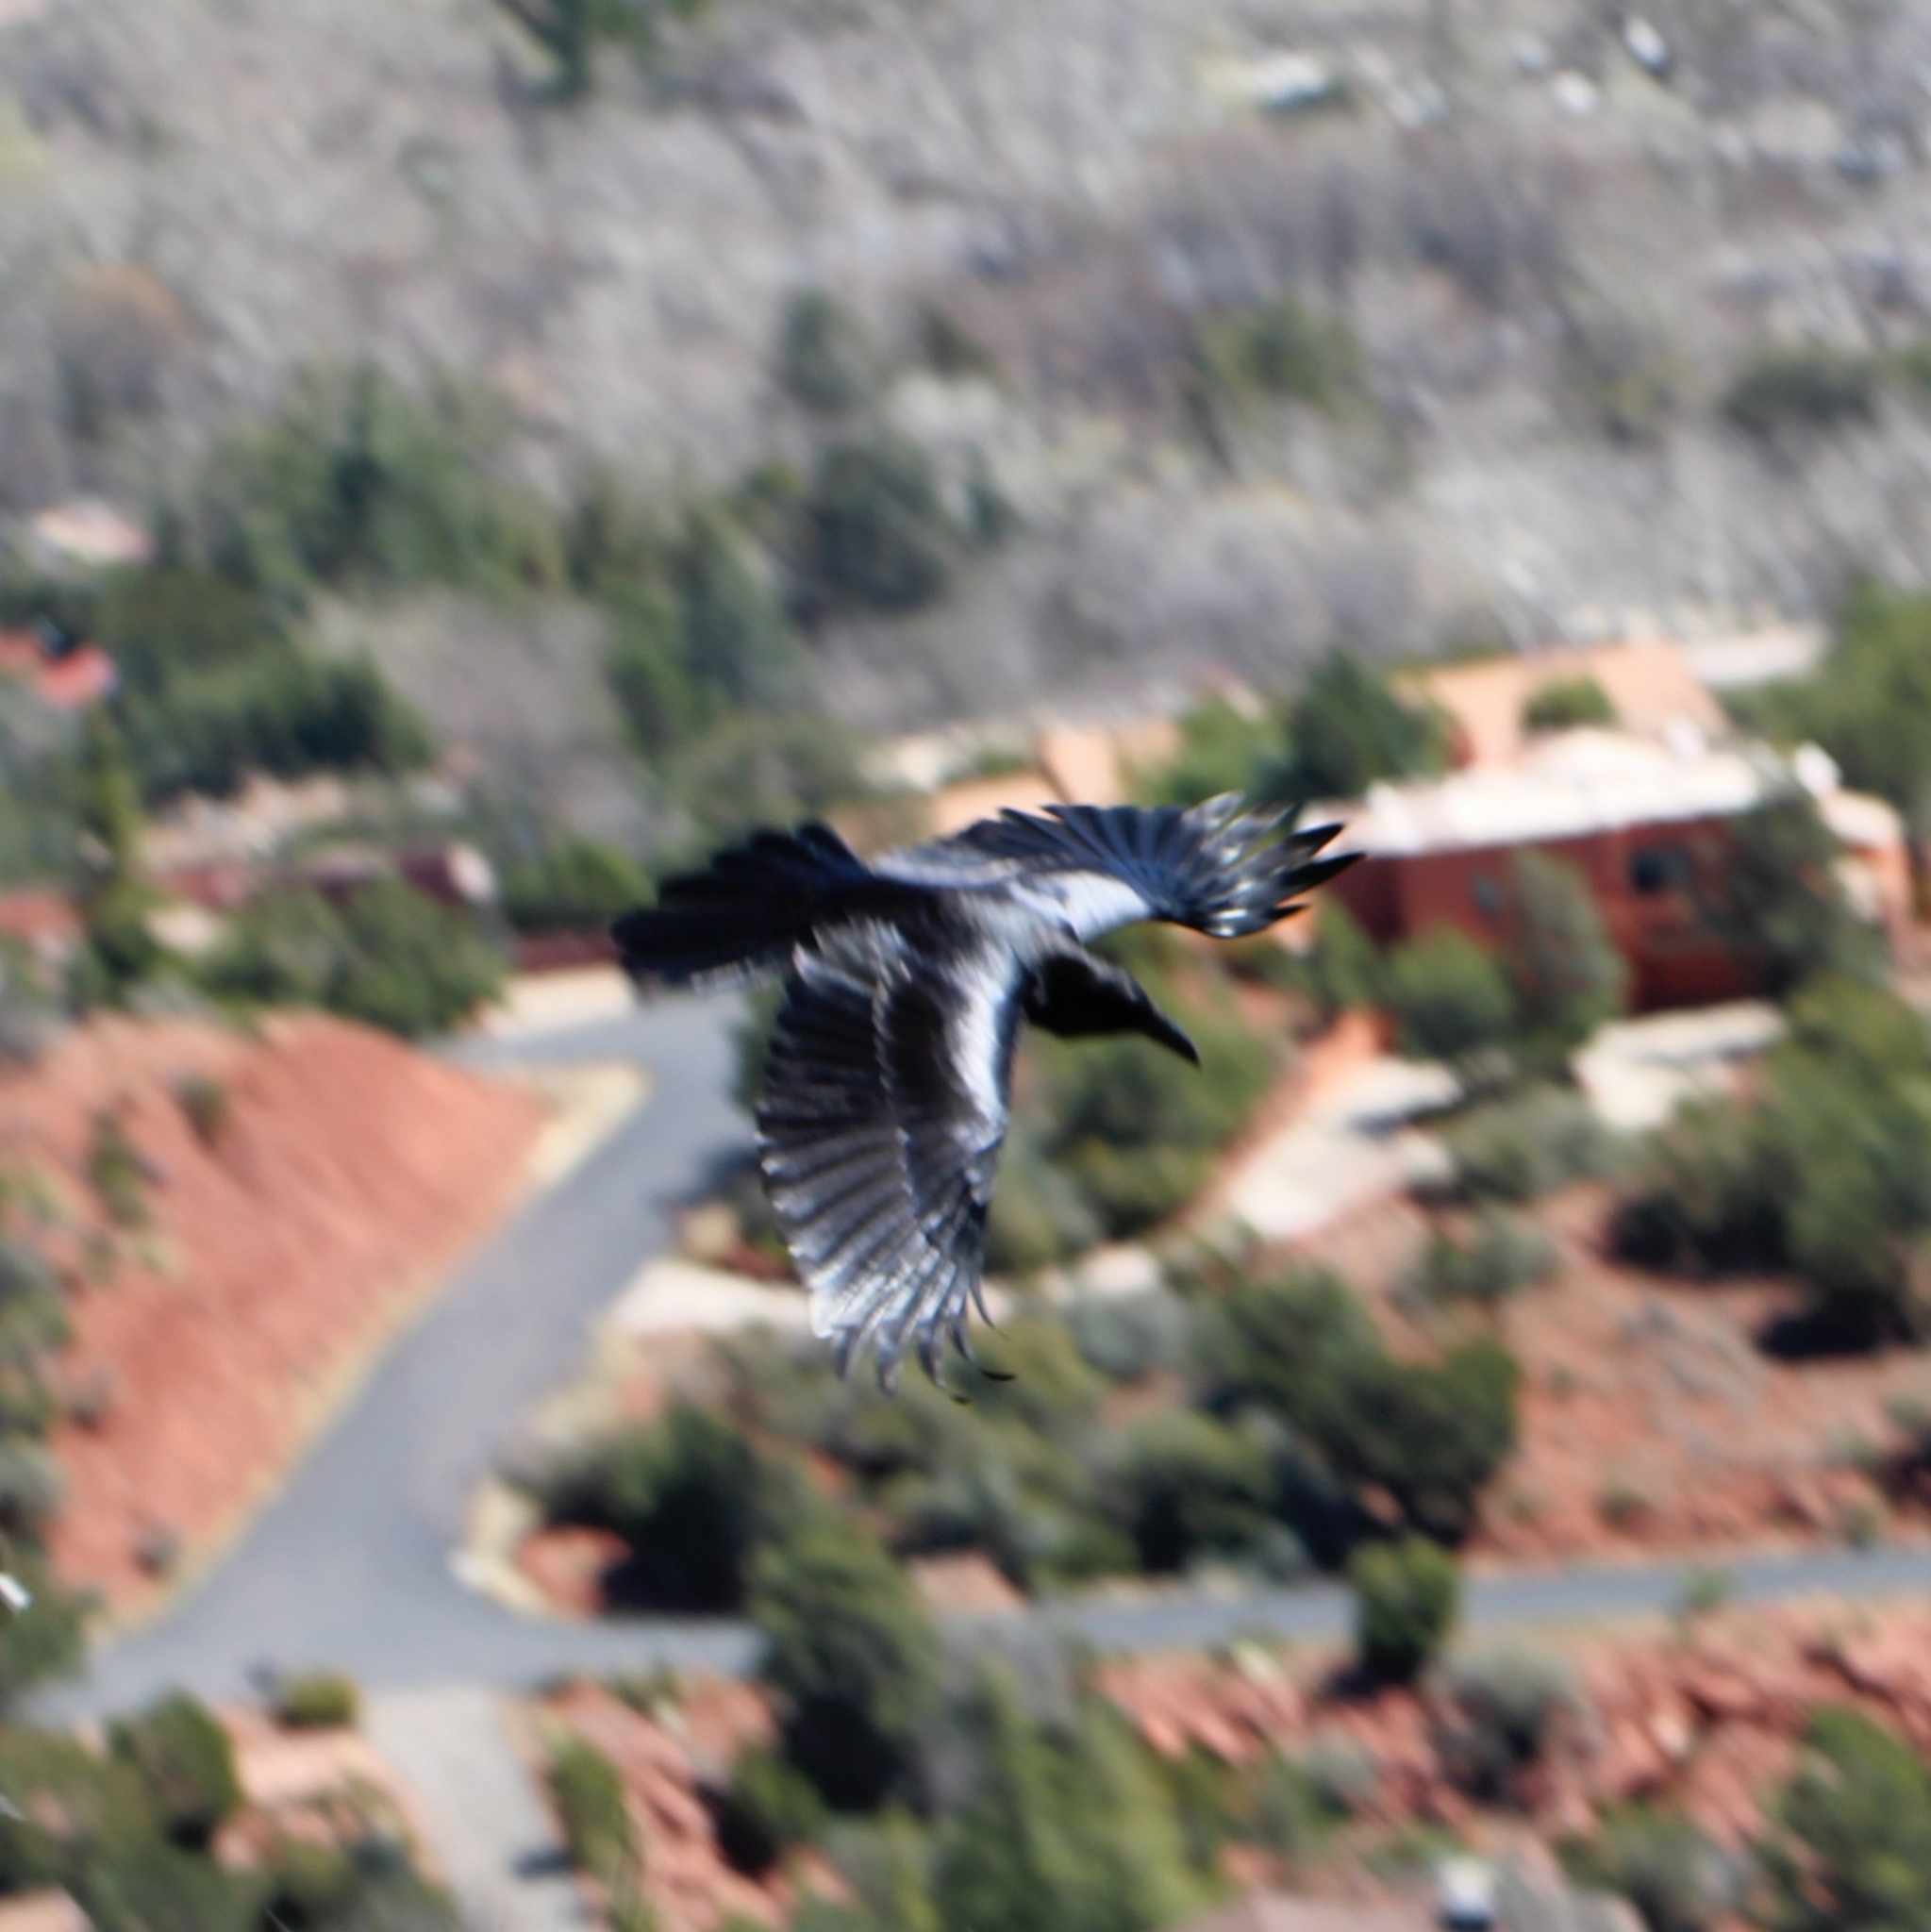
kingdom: Animalia
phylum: Chordata
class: Aves
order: Passeriformes
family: Corvidae
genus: Corvus
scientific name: Corvus corax
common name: Common raven
